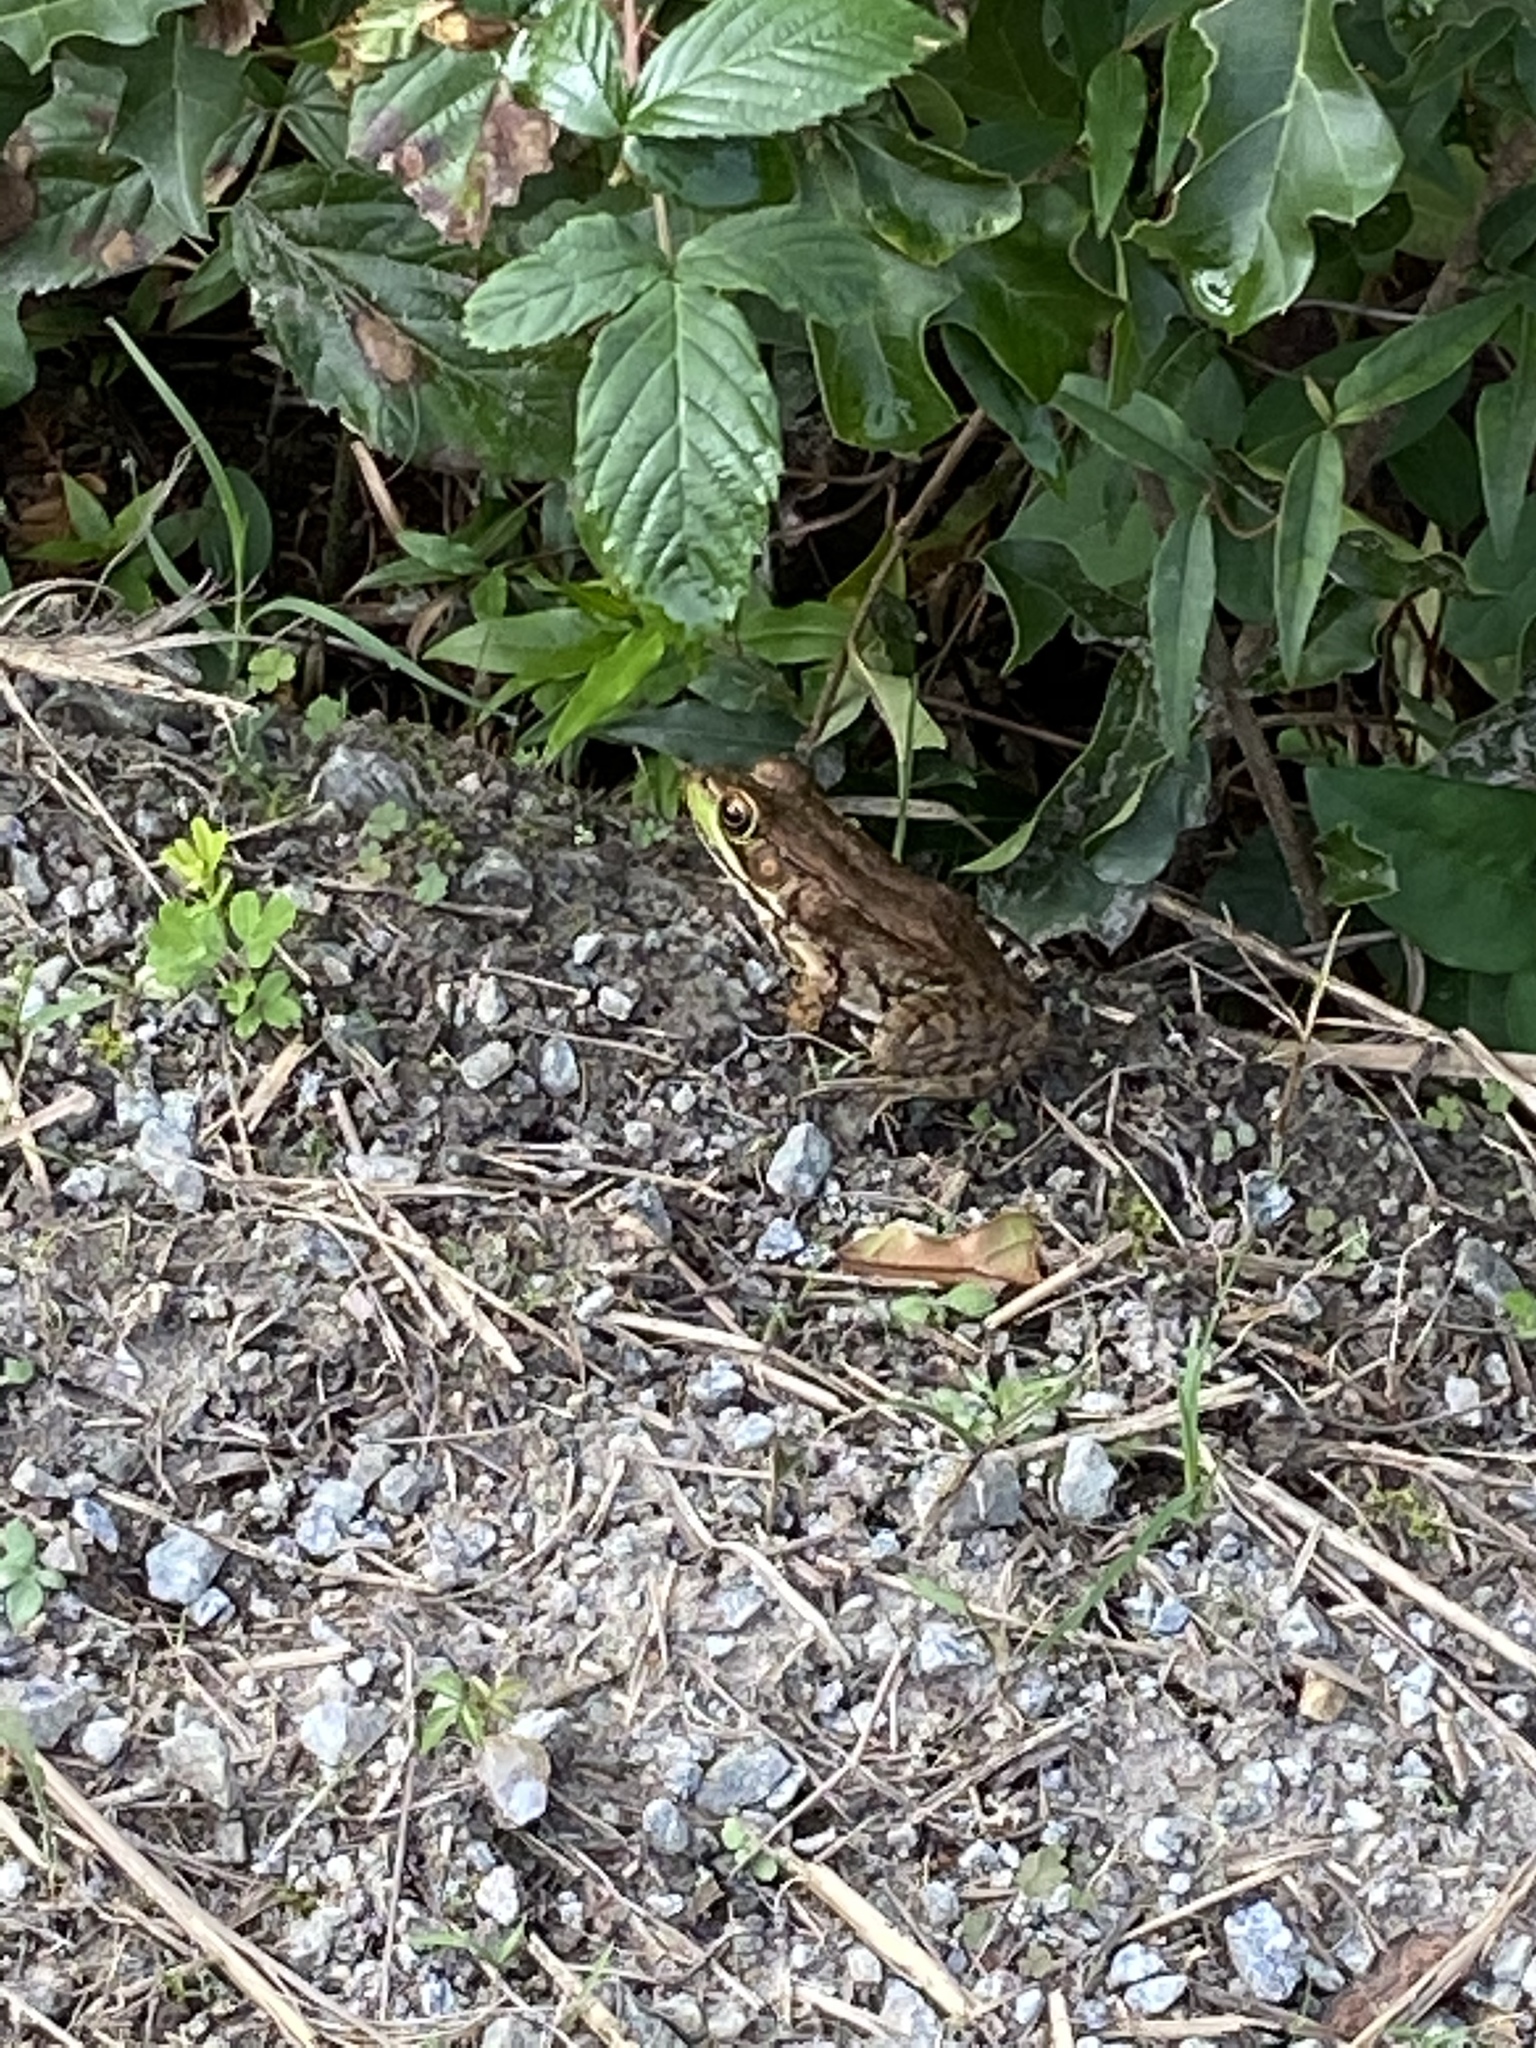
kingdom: Animalia
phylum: Chordata
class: Amphibia
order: Anura
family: Ranidae
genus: Lithobates
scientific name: Lithobates clamitans
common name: Green frog
